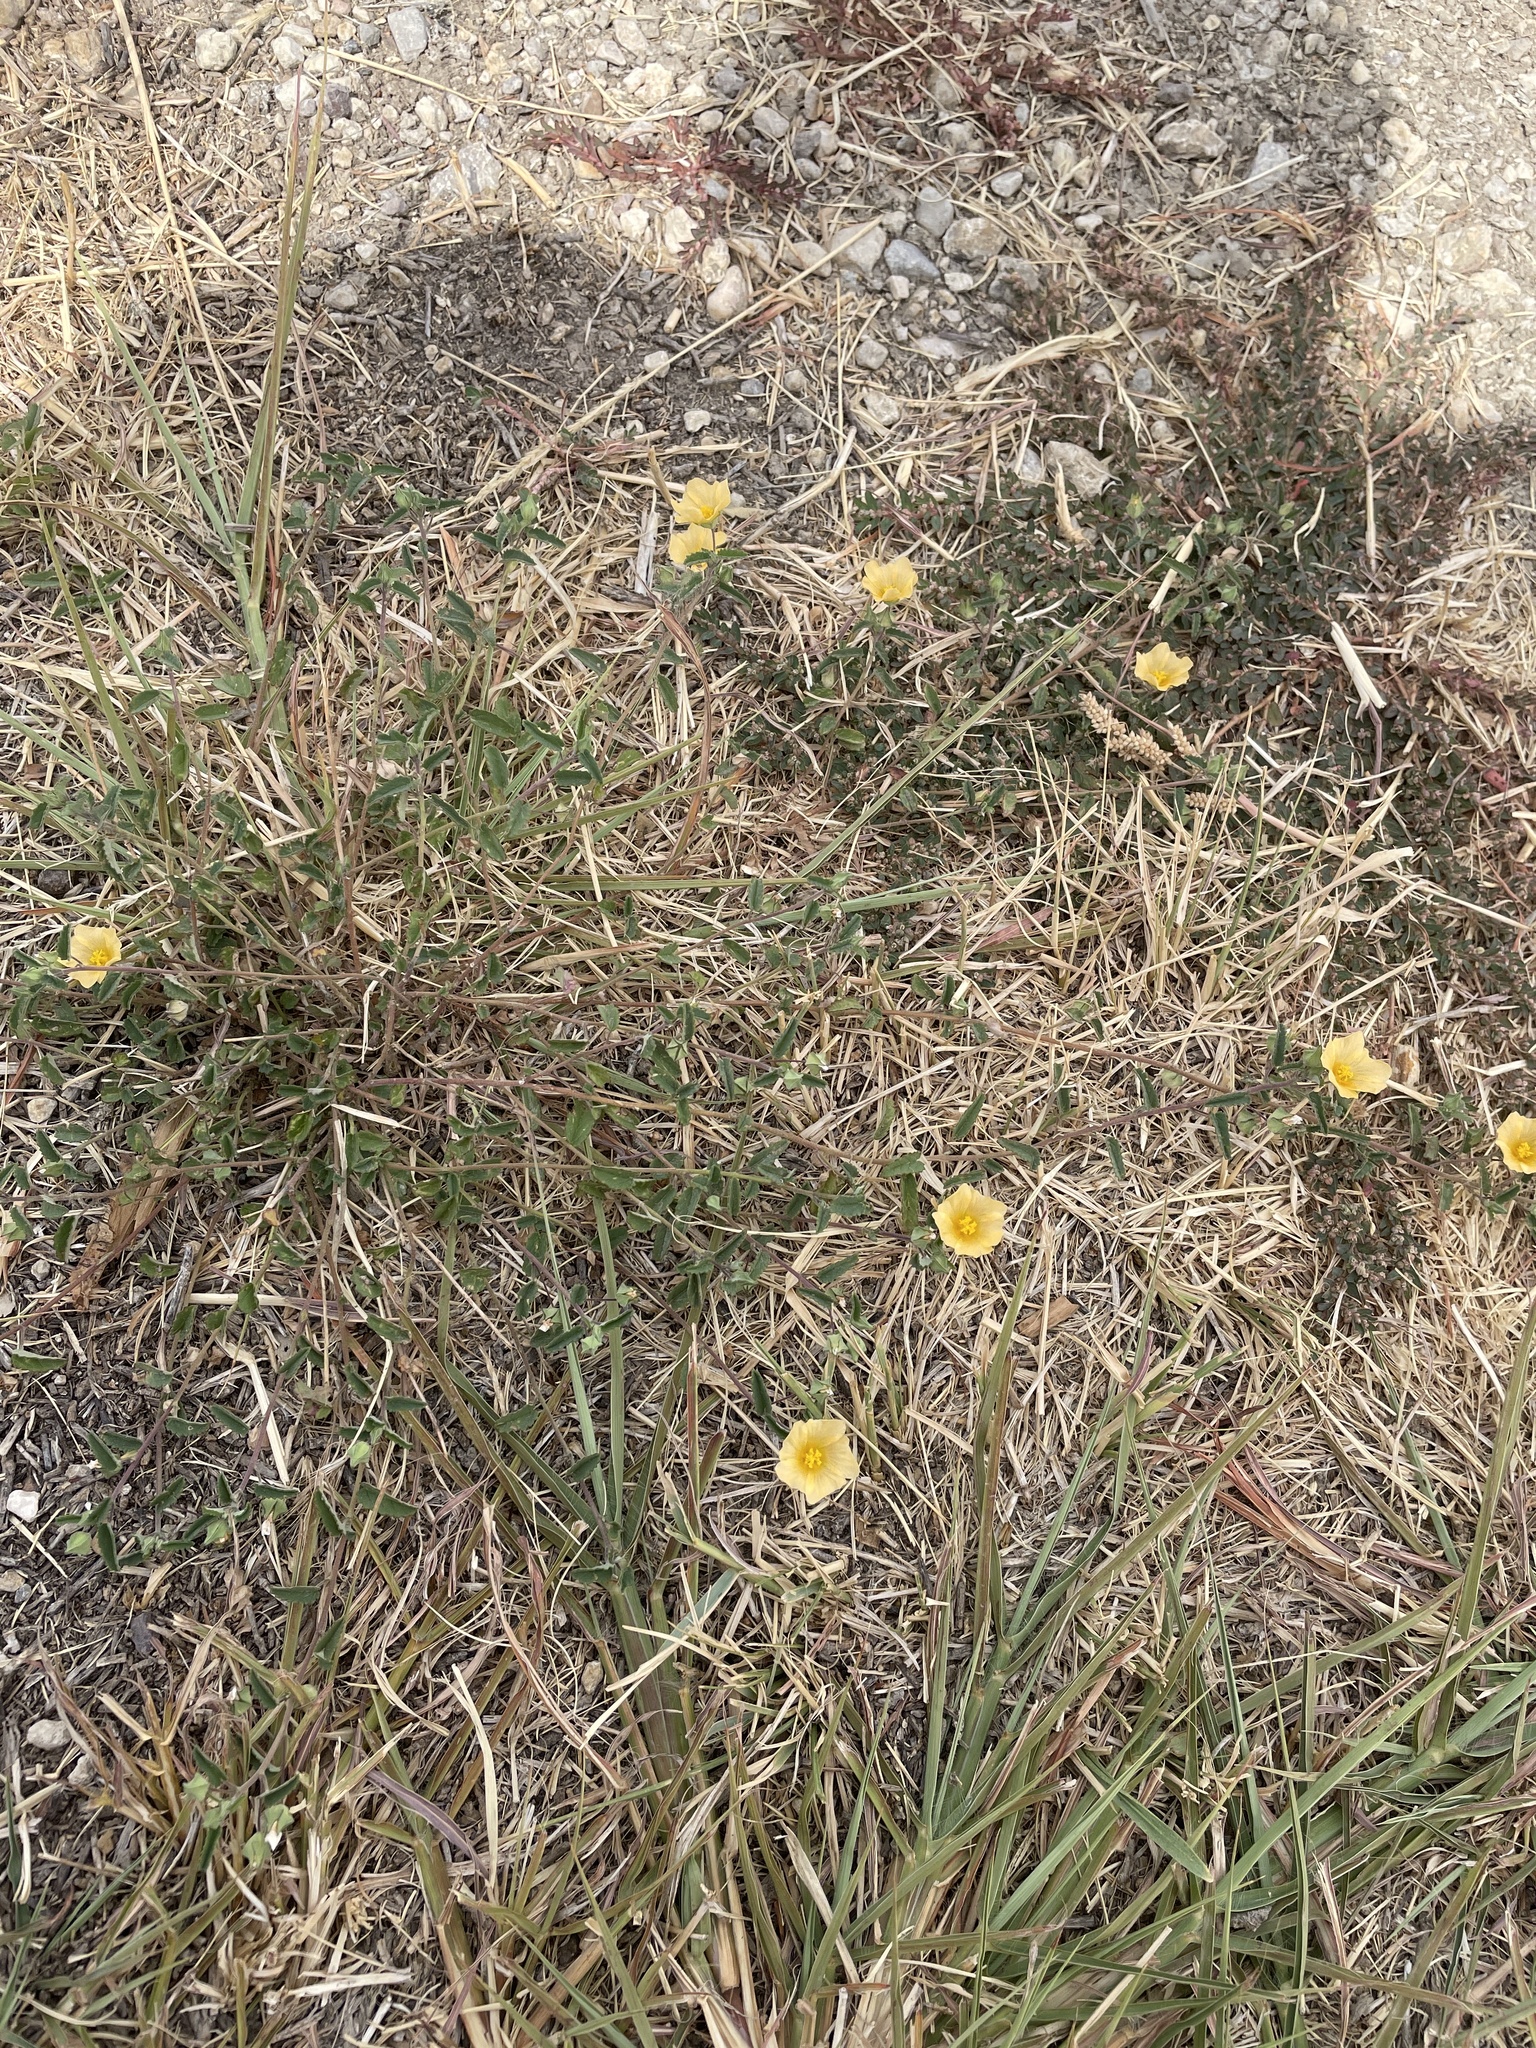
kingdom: Plantae
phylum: Tracheophyta
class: Magnoliopsida
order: Malvales
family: Malvaceae
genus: Sida
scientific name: Sida abutilifolia
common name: Spreading fanpetals
